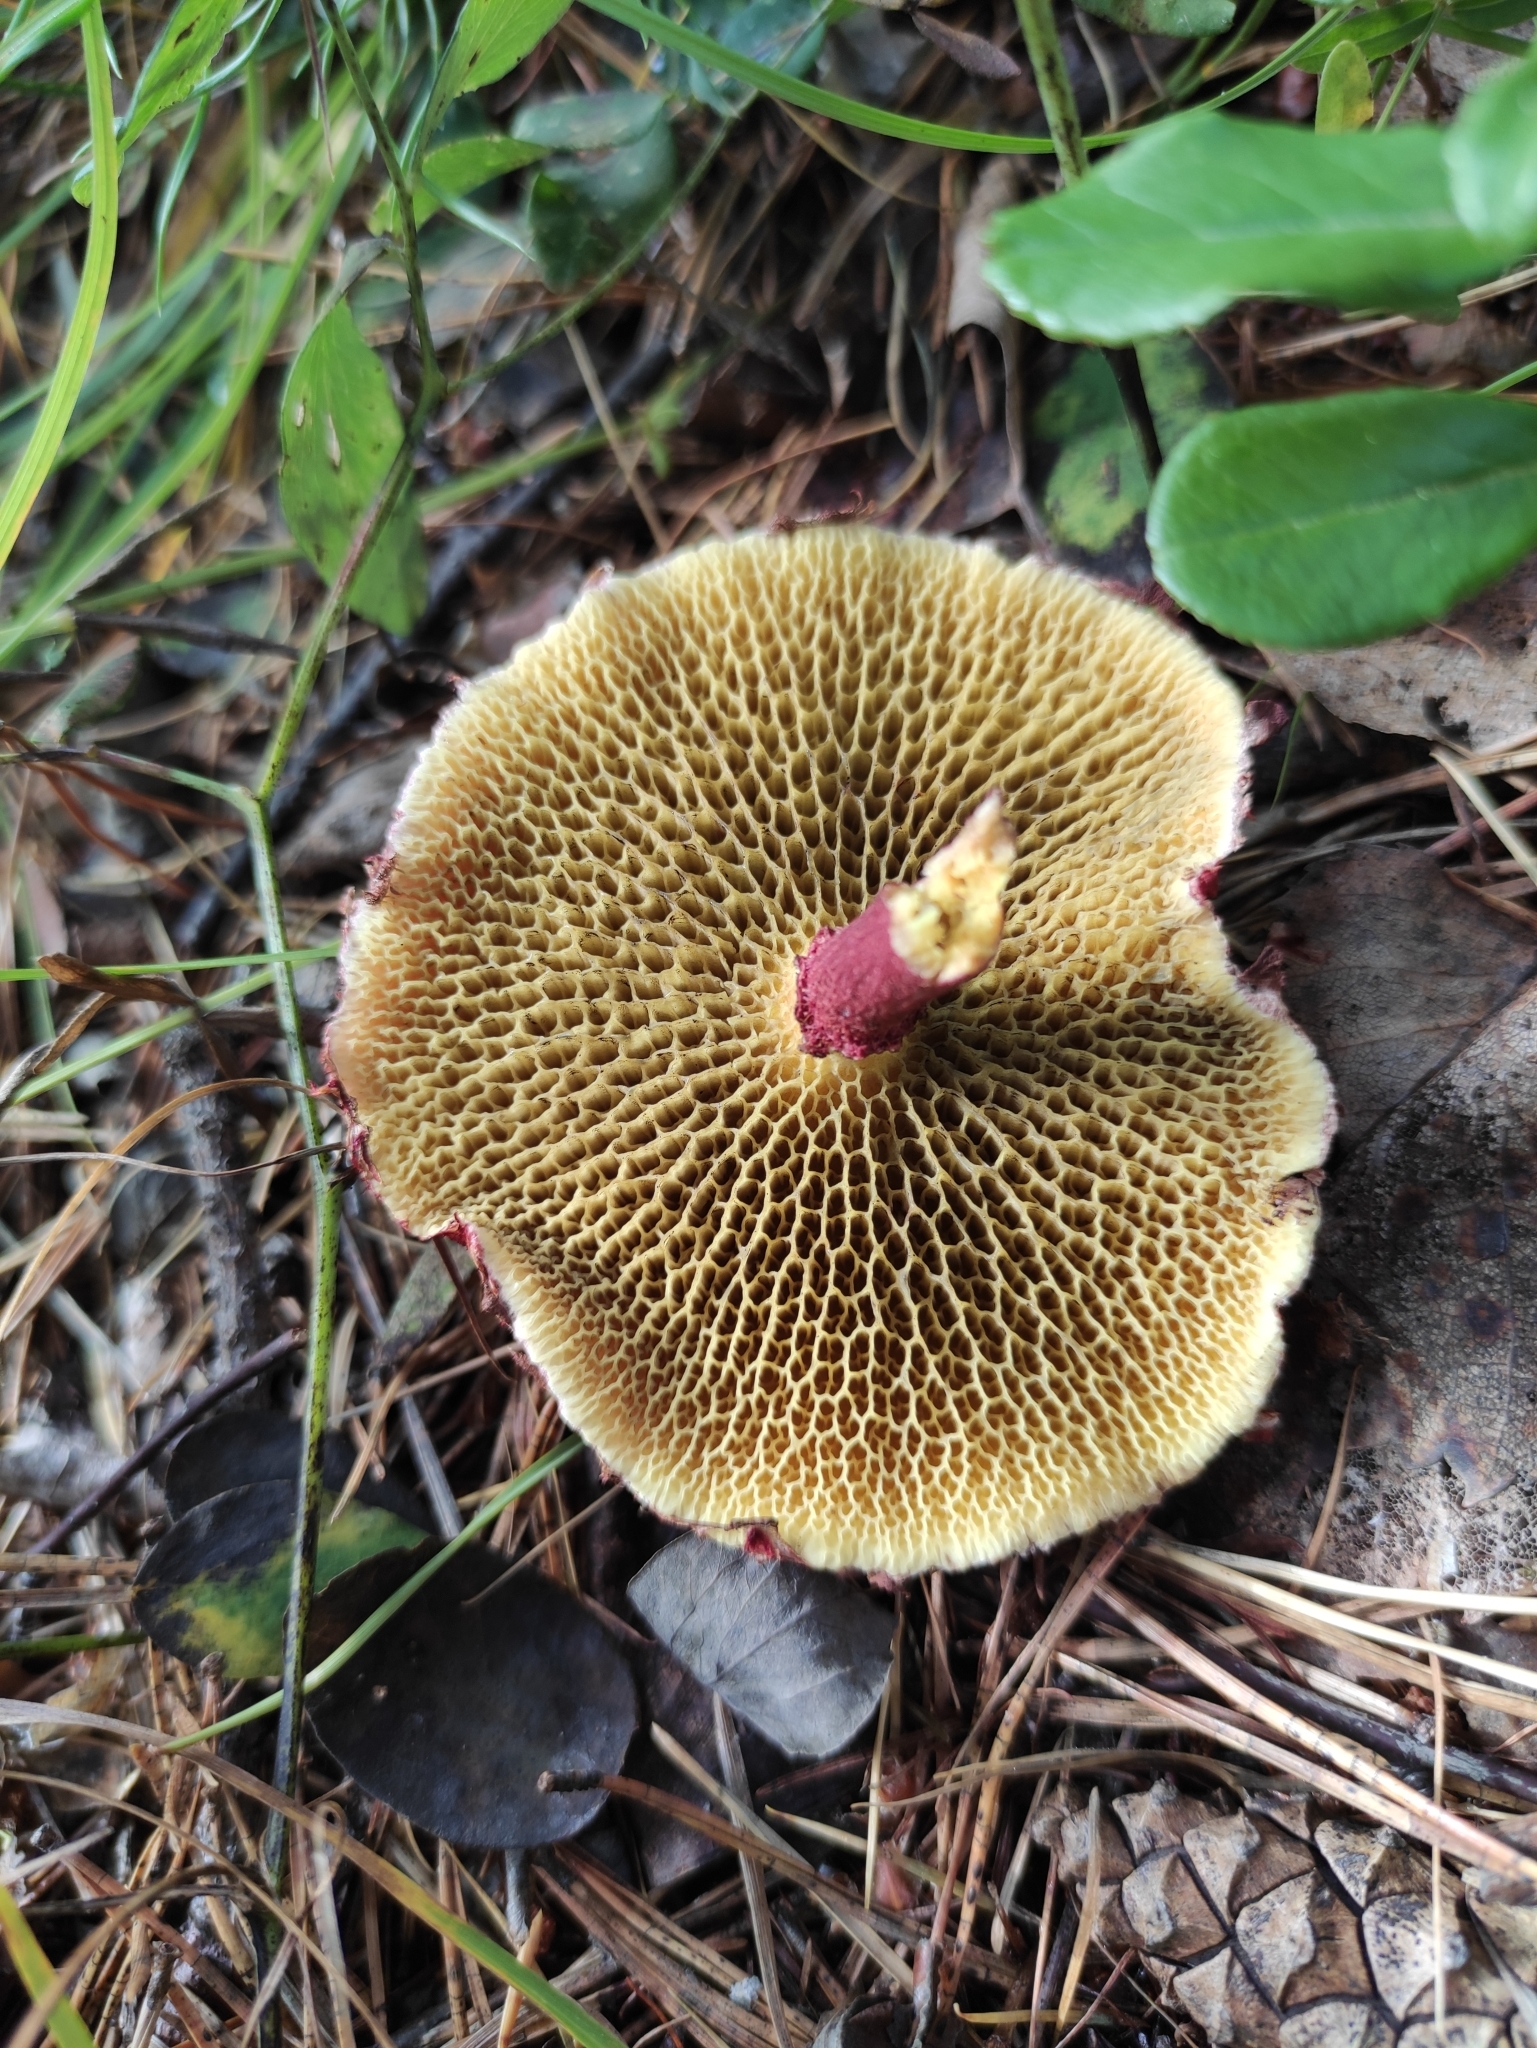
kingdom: Fungi
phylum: Basidiomycota
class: Agaricomycetes
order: Boletales
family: Suillaceae
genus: Boletinus
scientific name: Boletinus asiaticus
